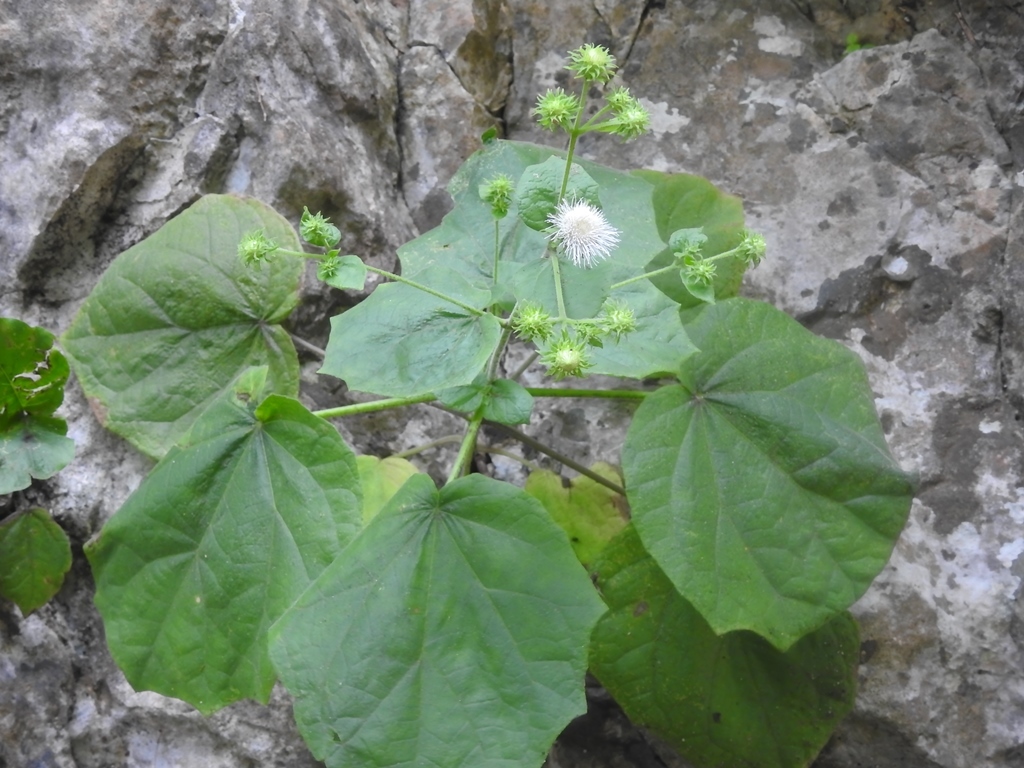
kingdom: Plantae
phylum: Tracheophyta
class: Magnoliopsida
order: Asterales
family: Asteraceae
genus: Eupatoriastrum
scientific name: Eupatoriastrum corvi
